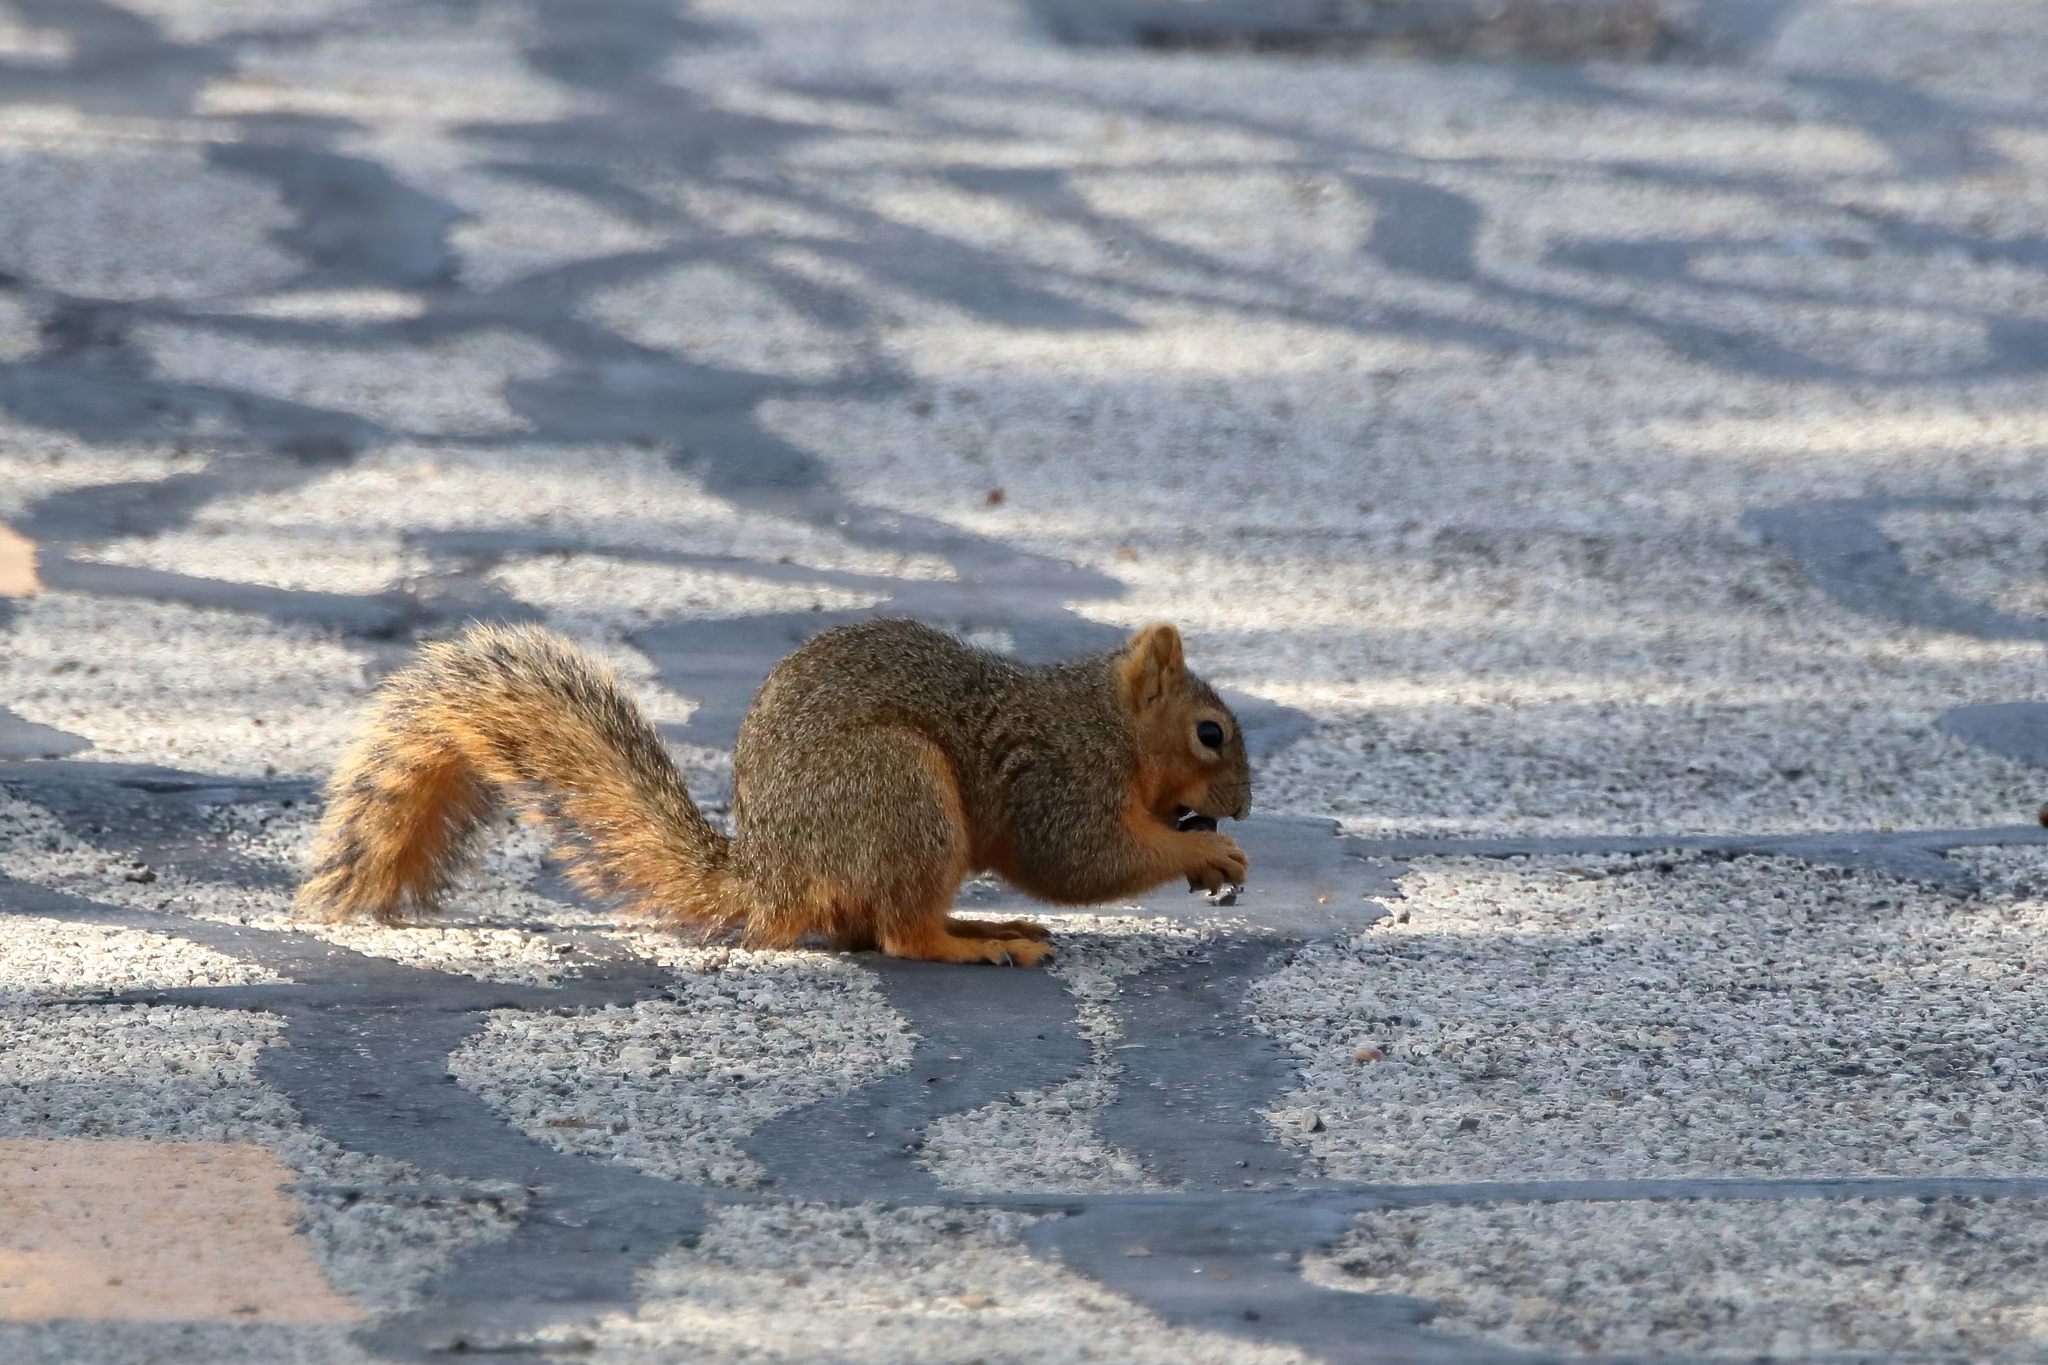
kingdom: Animalia
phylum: Chordata
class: Mammalia
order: Rodentia
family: Sciuridae
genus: Sciurus
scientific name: Sciurus niger
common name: Fox squirrel
